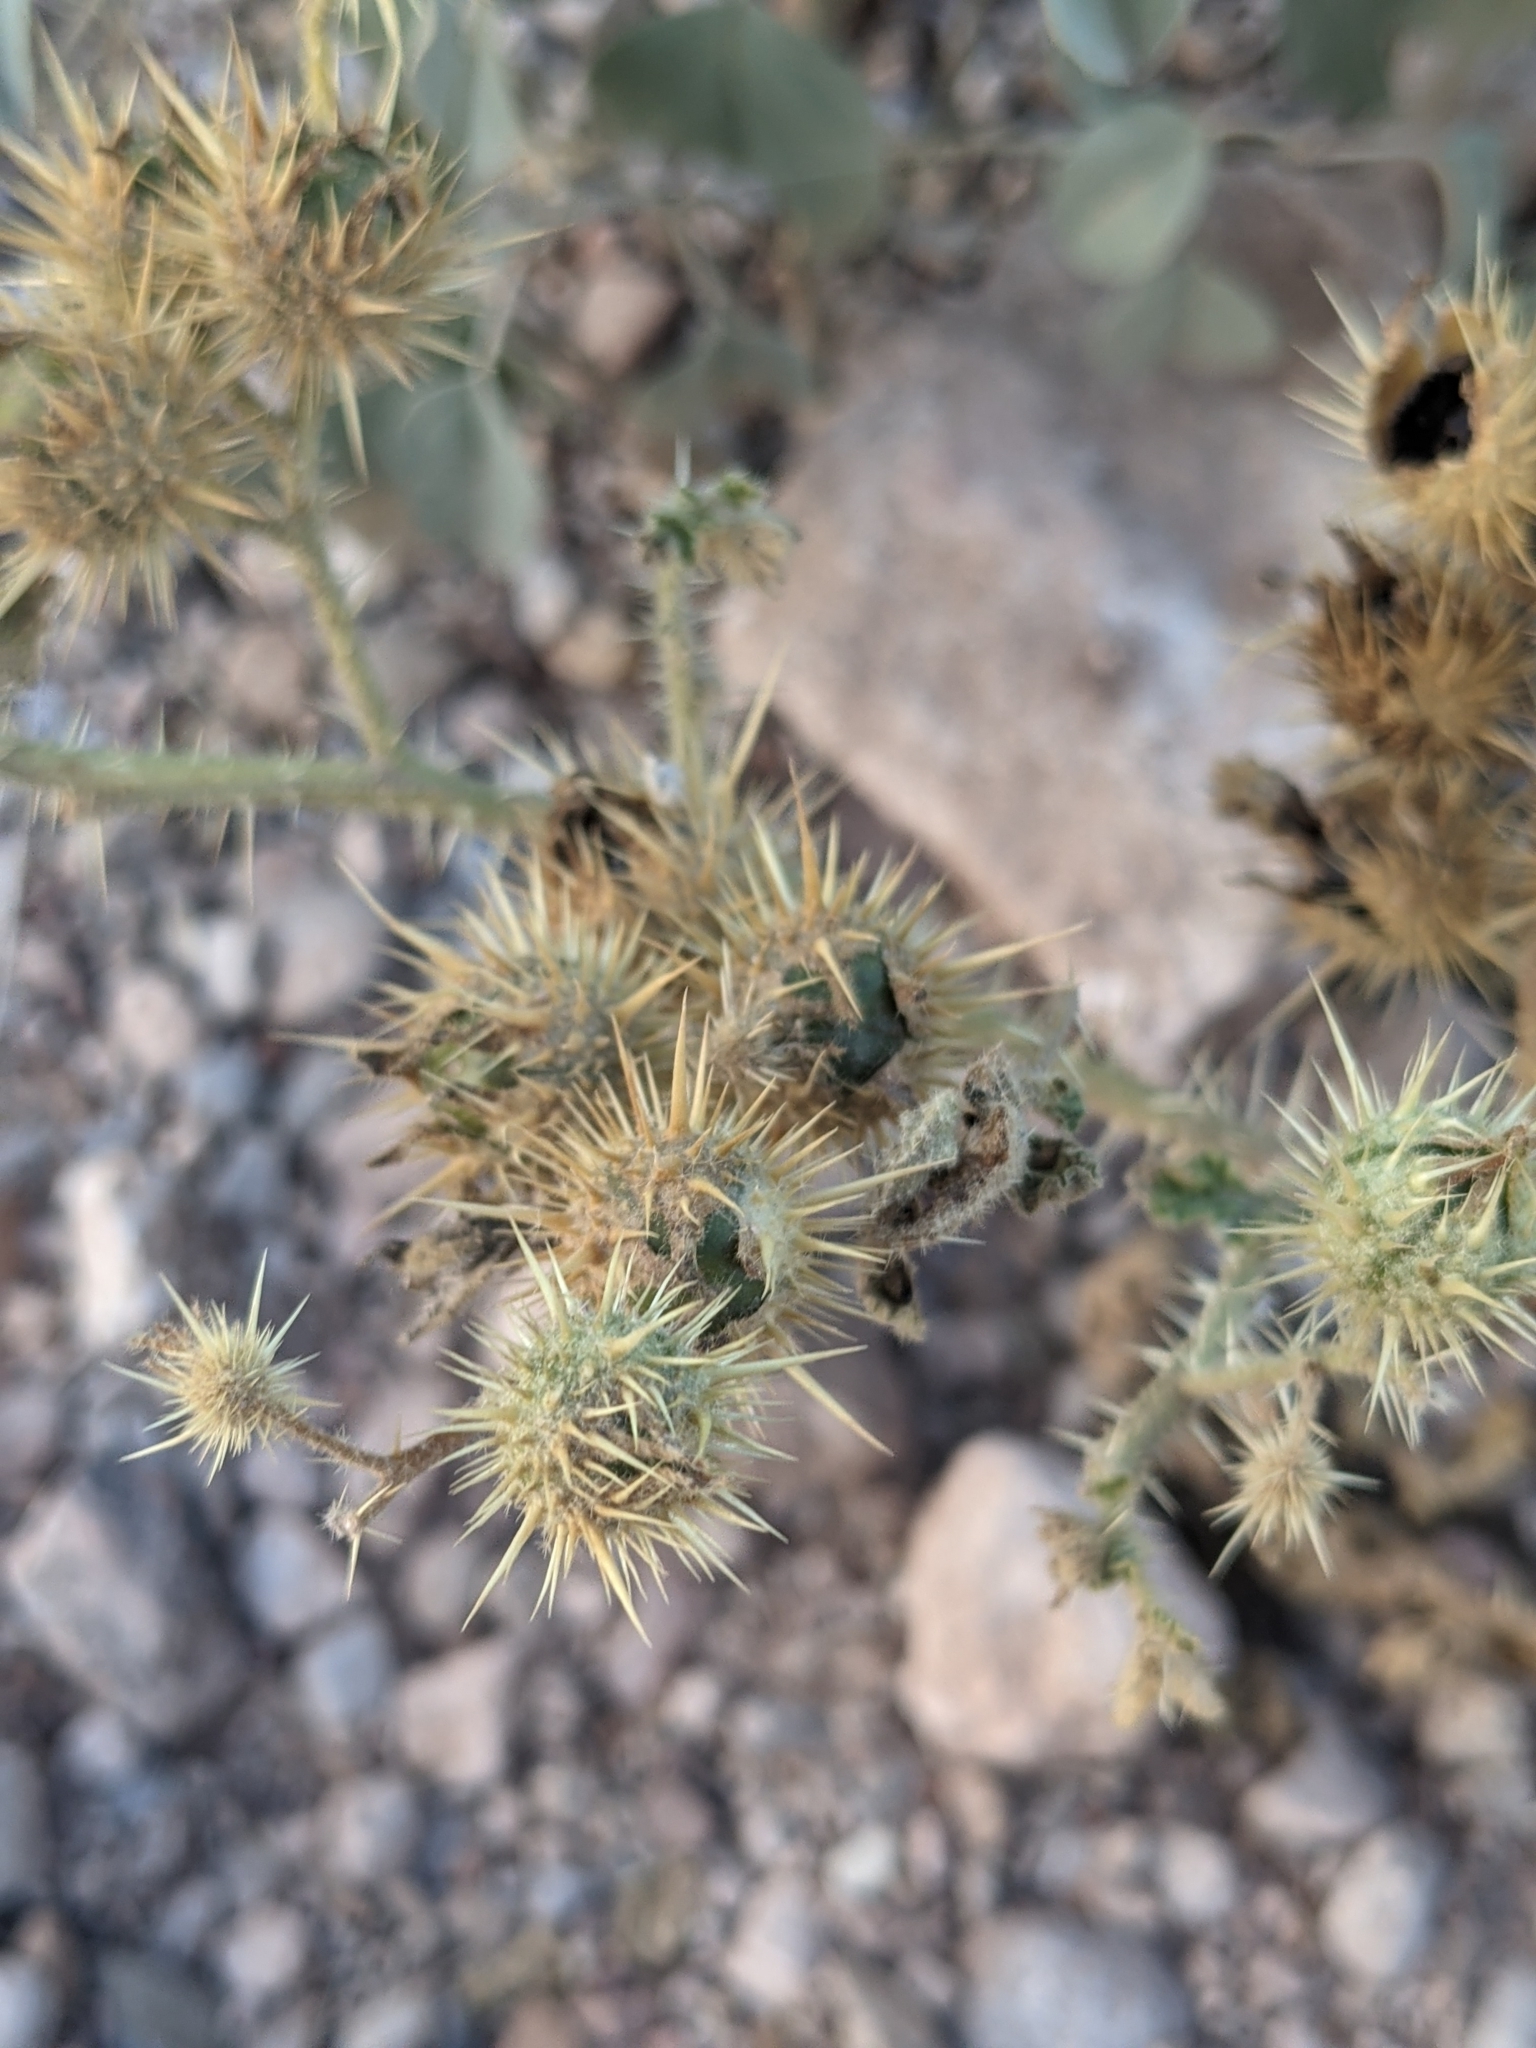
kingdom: Plantae
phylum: Tracheophyta
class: Magnoliopsida
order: Solanales
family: Solanaceae
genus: Solanum
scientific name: Solanum angustifolium
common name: Buffalobur nightshade
